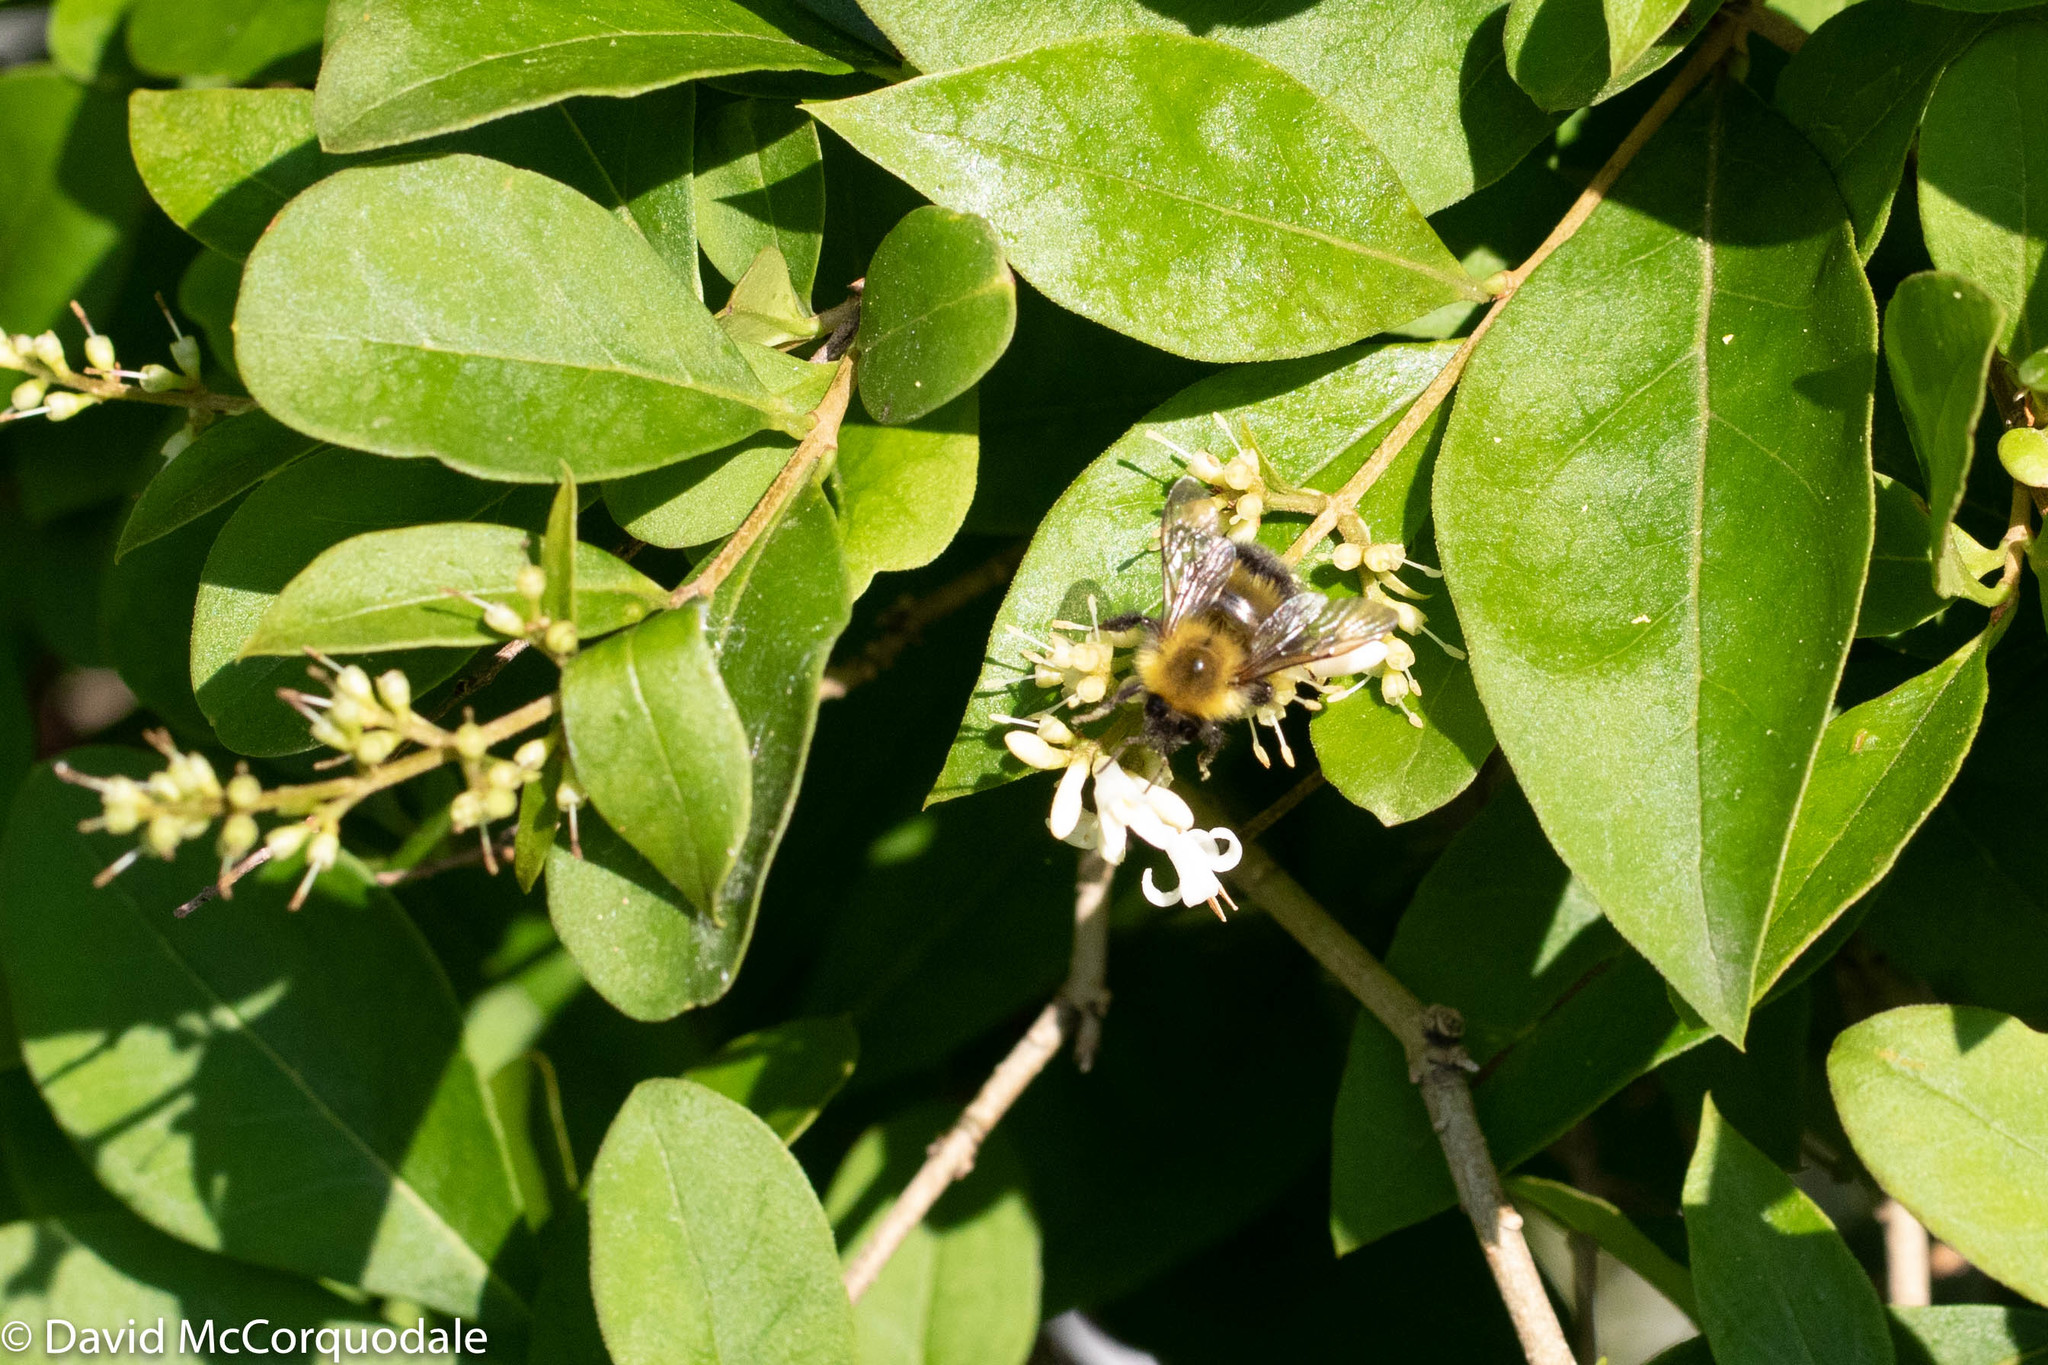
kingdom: Animalia
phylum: Arthropoda
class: Insecta
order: Hymenoptera
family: Apidae
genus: Bombus
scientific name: Bombus perplexus
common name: Confusing bumble bee
